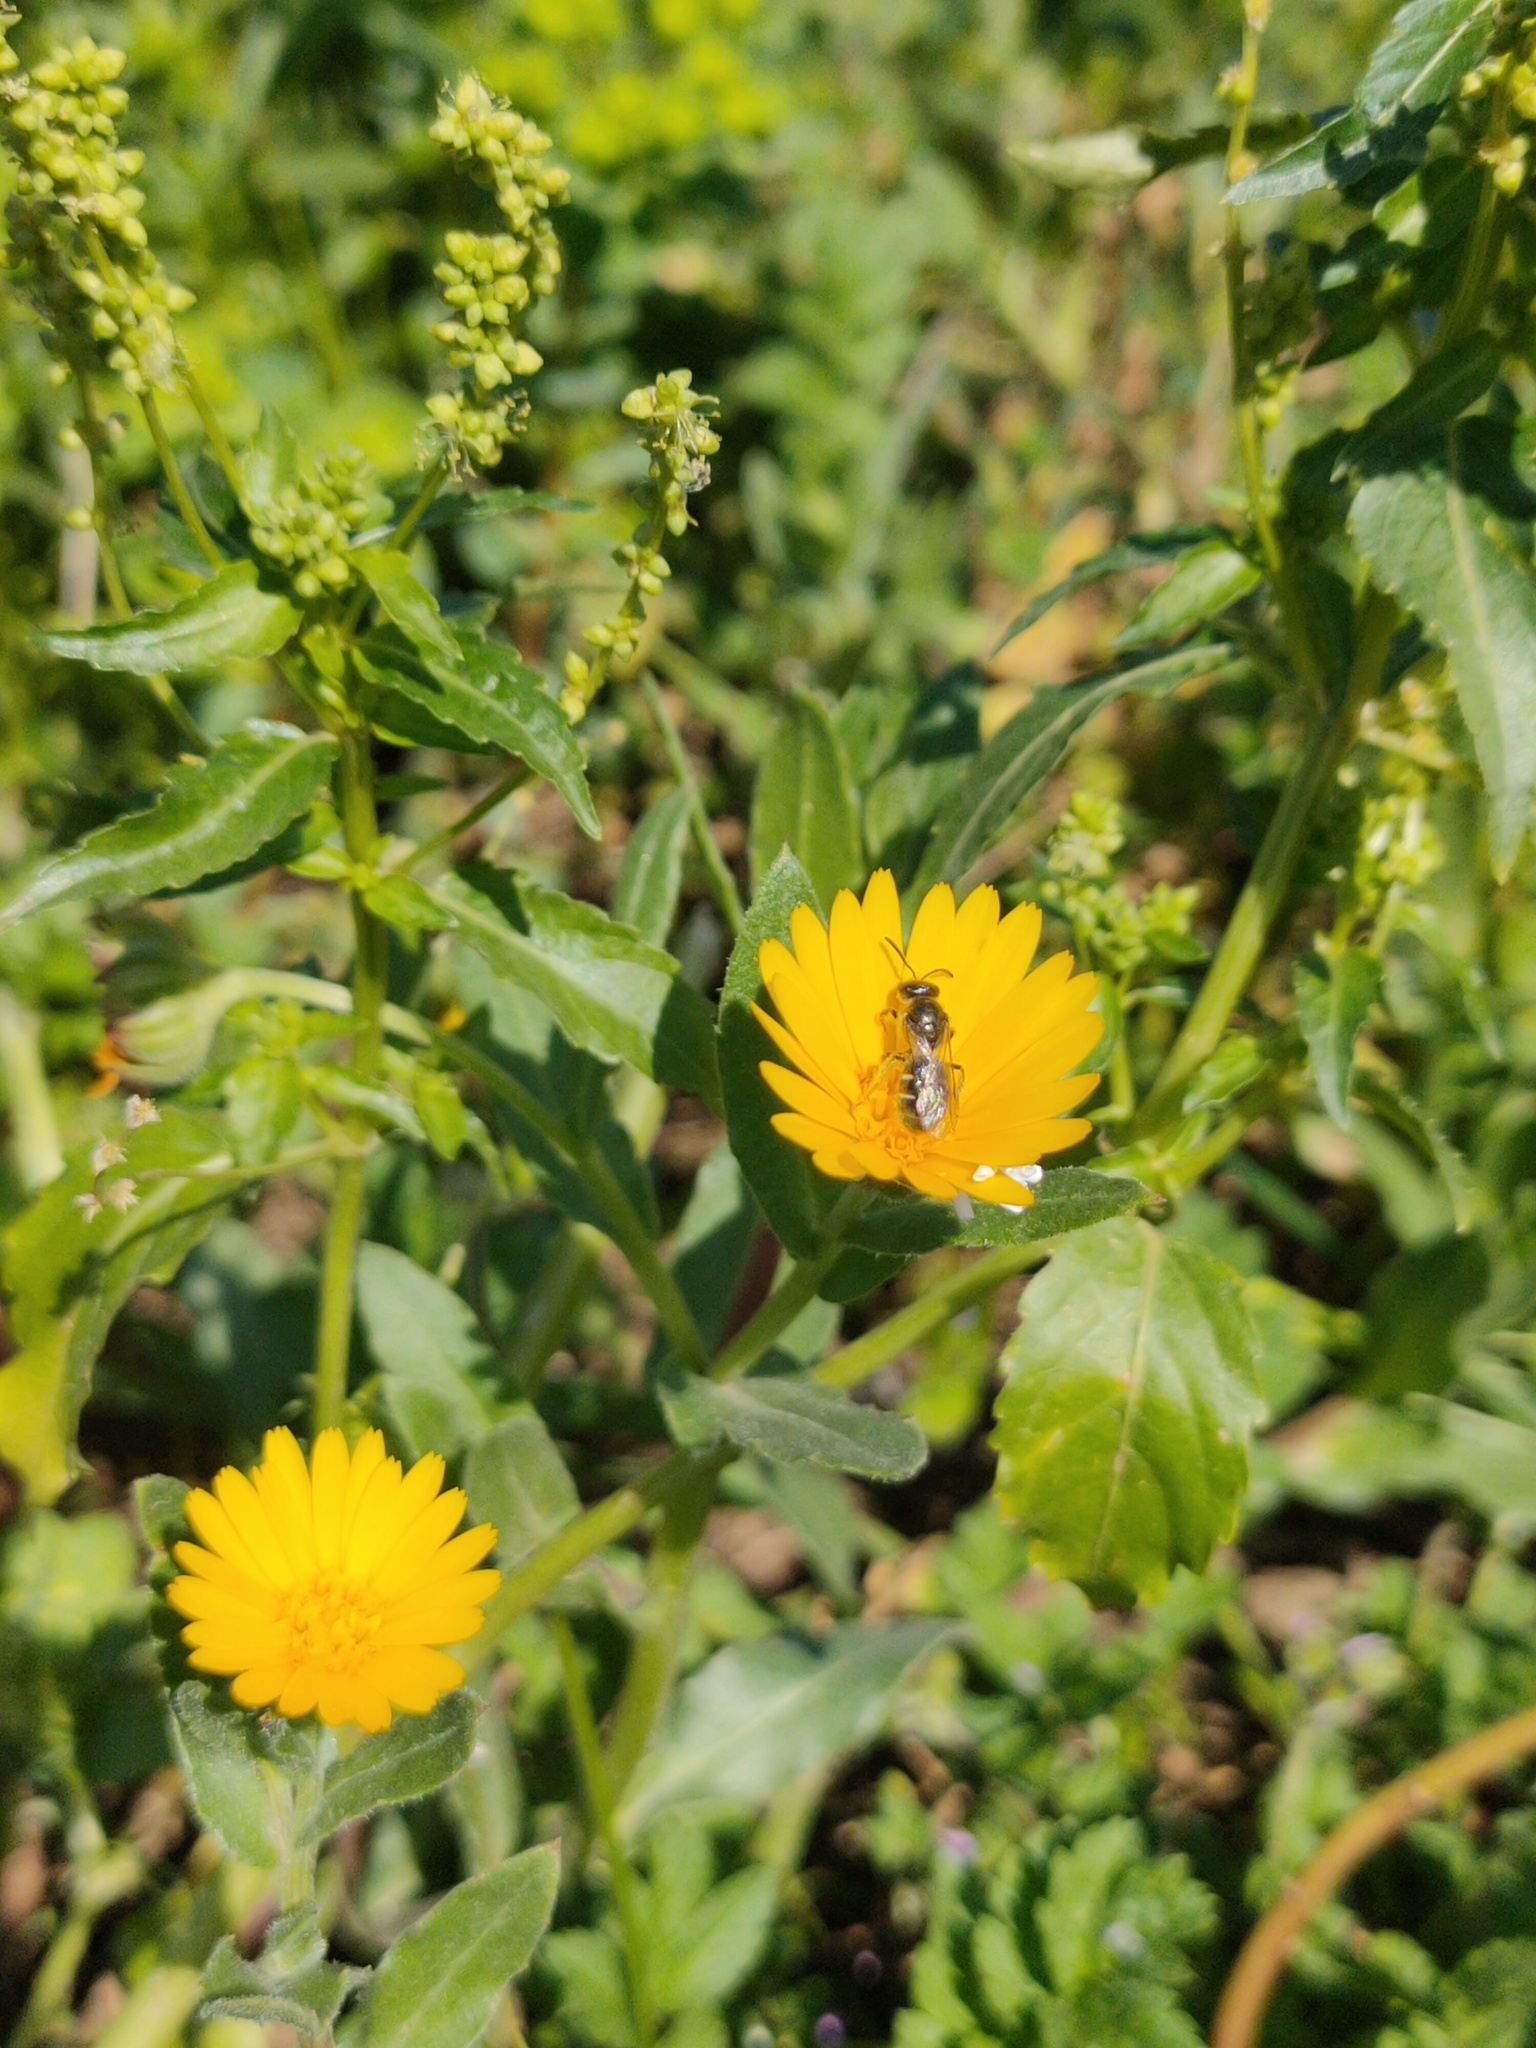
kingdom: Plantae
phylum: Tracheophyta
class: Magnoliopsida
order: Asterales
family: Asteraceae
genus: Calendula
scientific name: Calendula arvensis
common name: Field marigold
